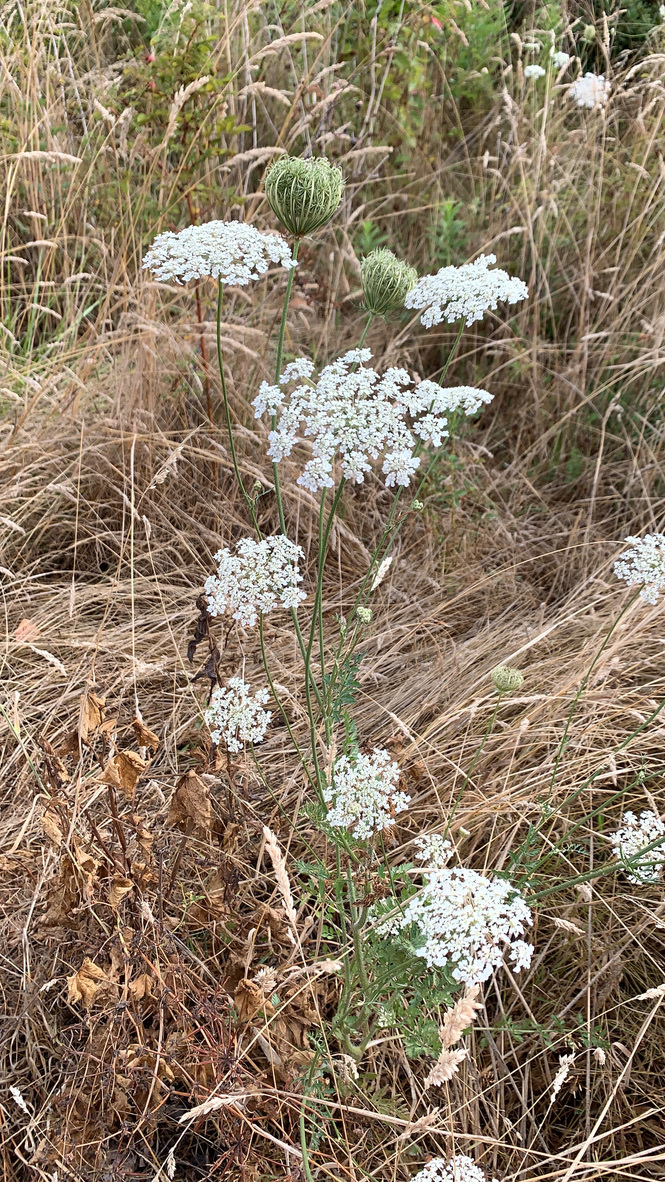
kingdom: Plantae
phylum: Tracheophyta
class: Magnoliopsida
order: Apiales
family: Apiaceae
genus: Daucus
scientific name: Daucus carota
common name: Wild carrot
